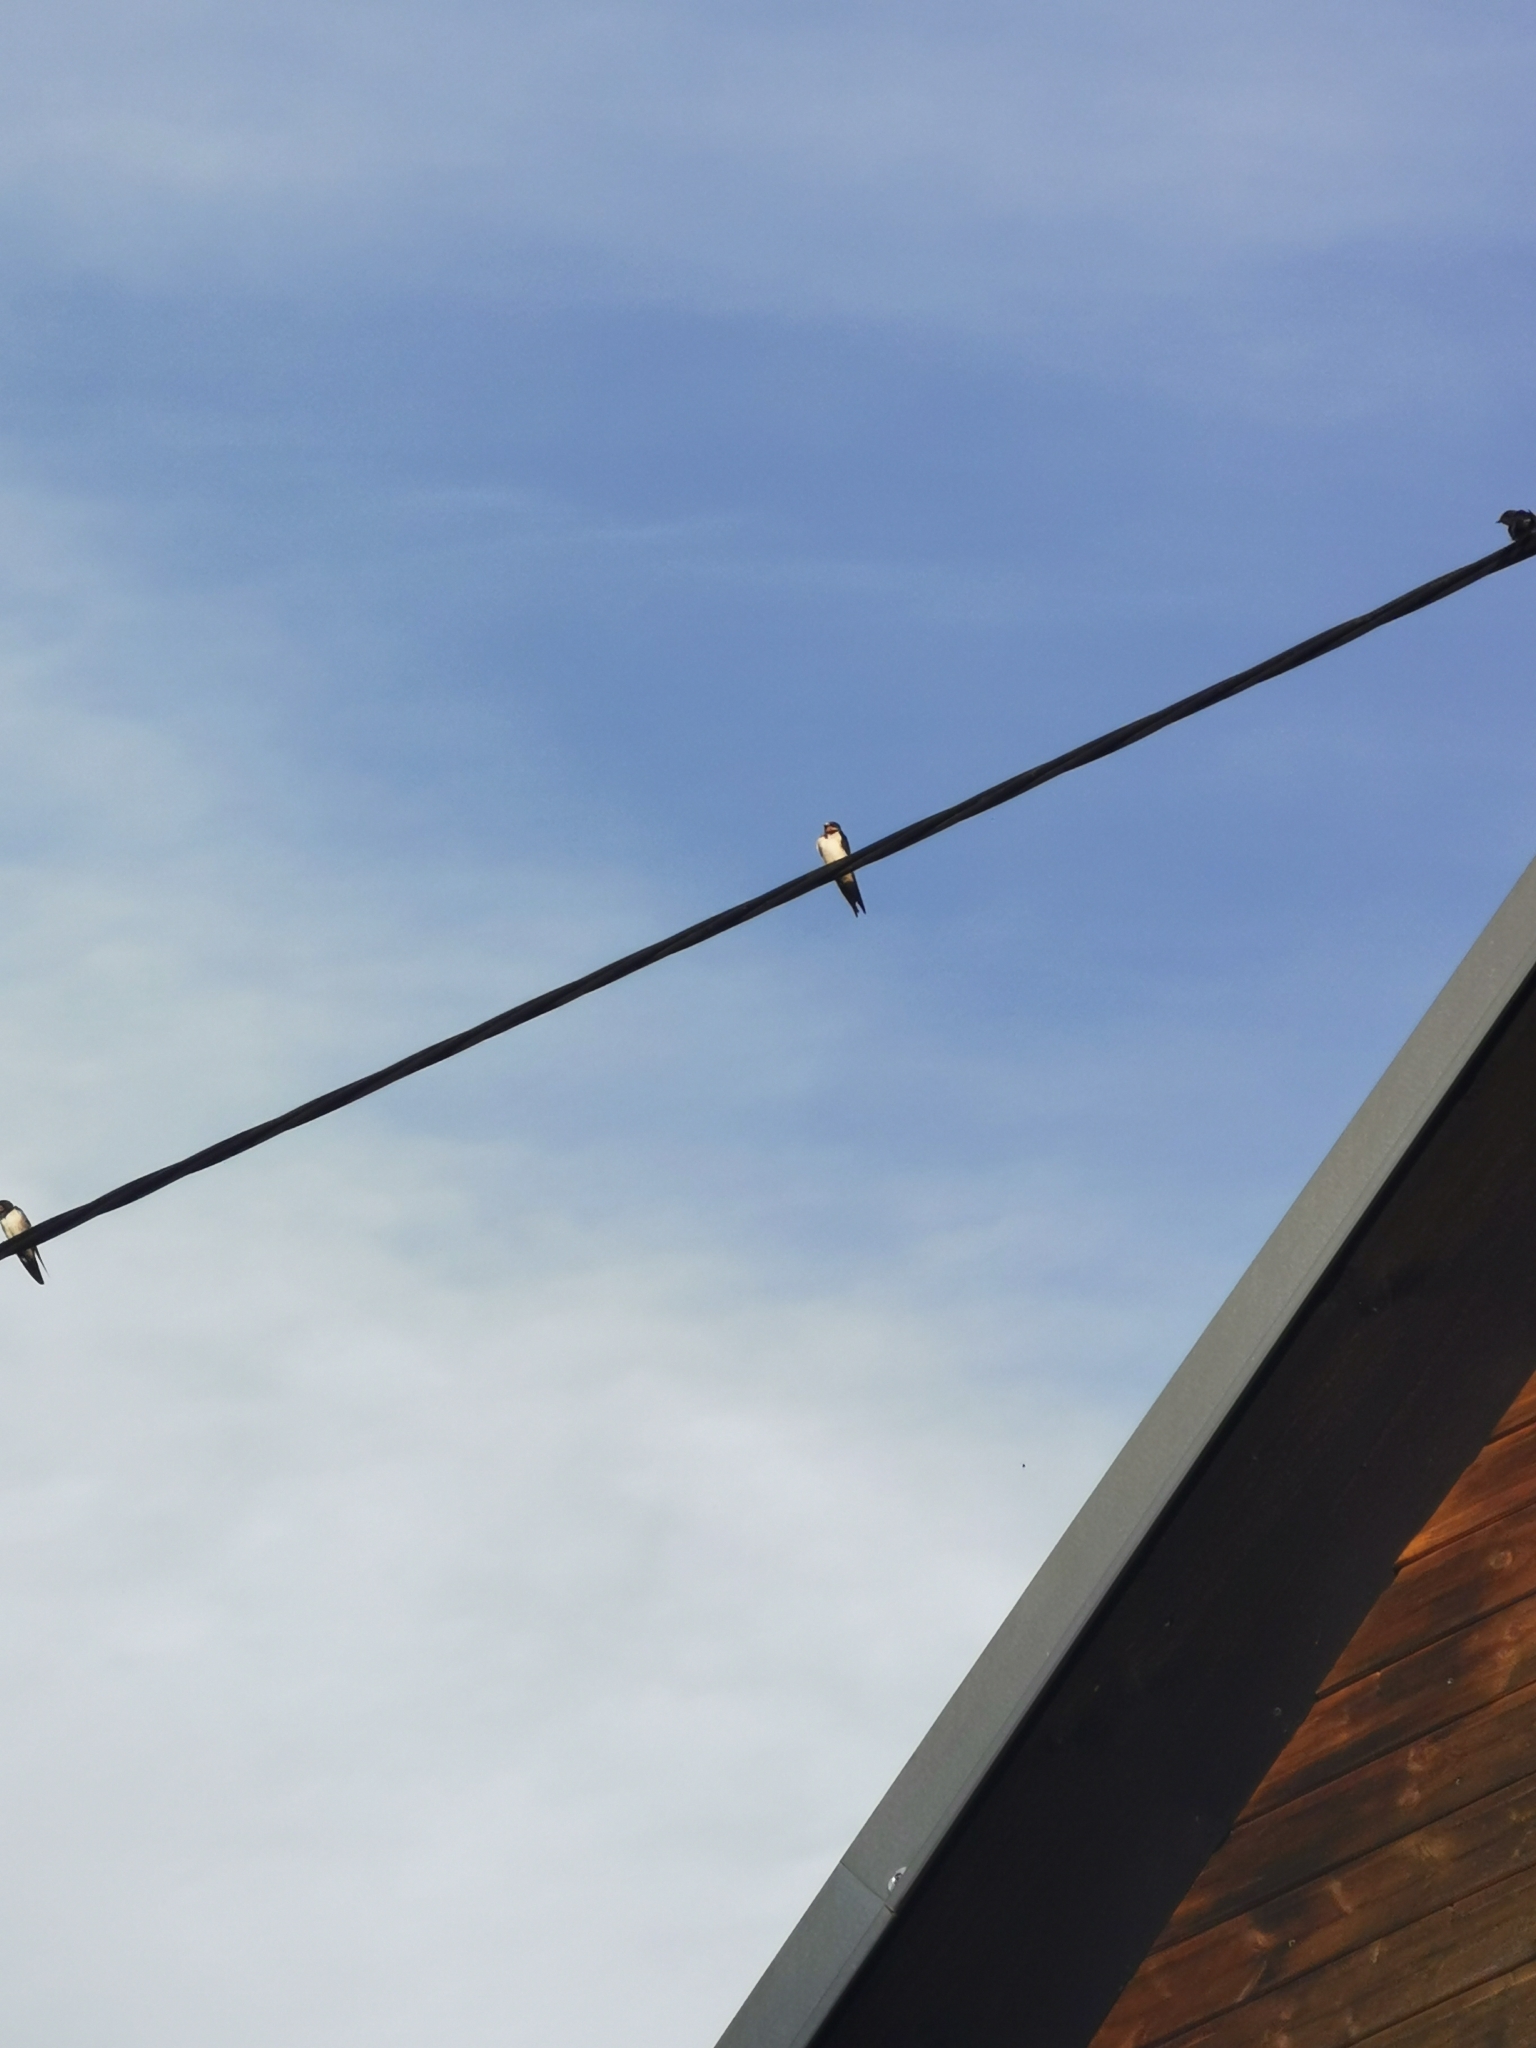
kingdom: Animalia
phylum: Chordata
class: Aves
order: Passeriformes
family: Hirundinidae
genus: Hirundo
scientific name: Hirundo rustica
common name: Barn swallow
